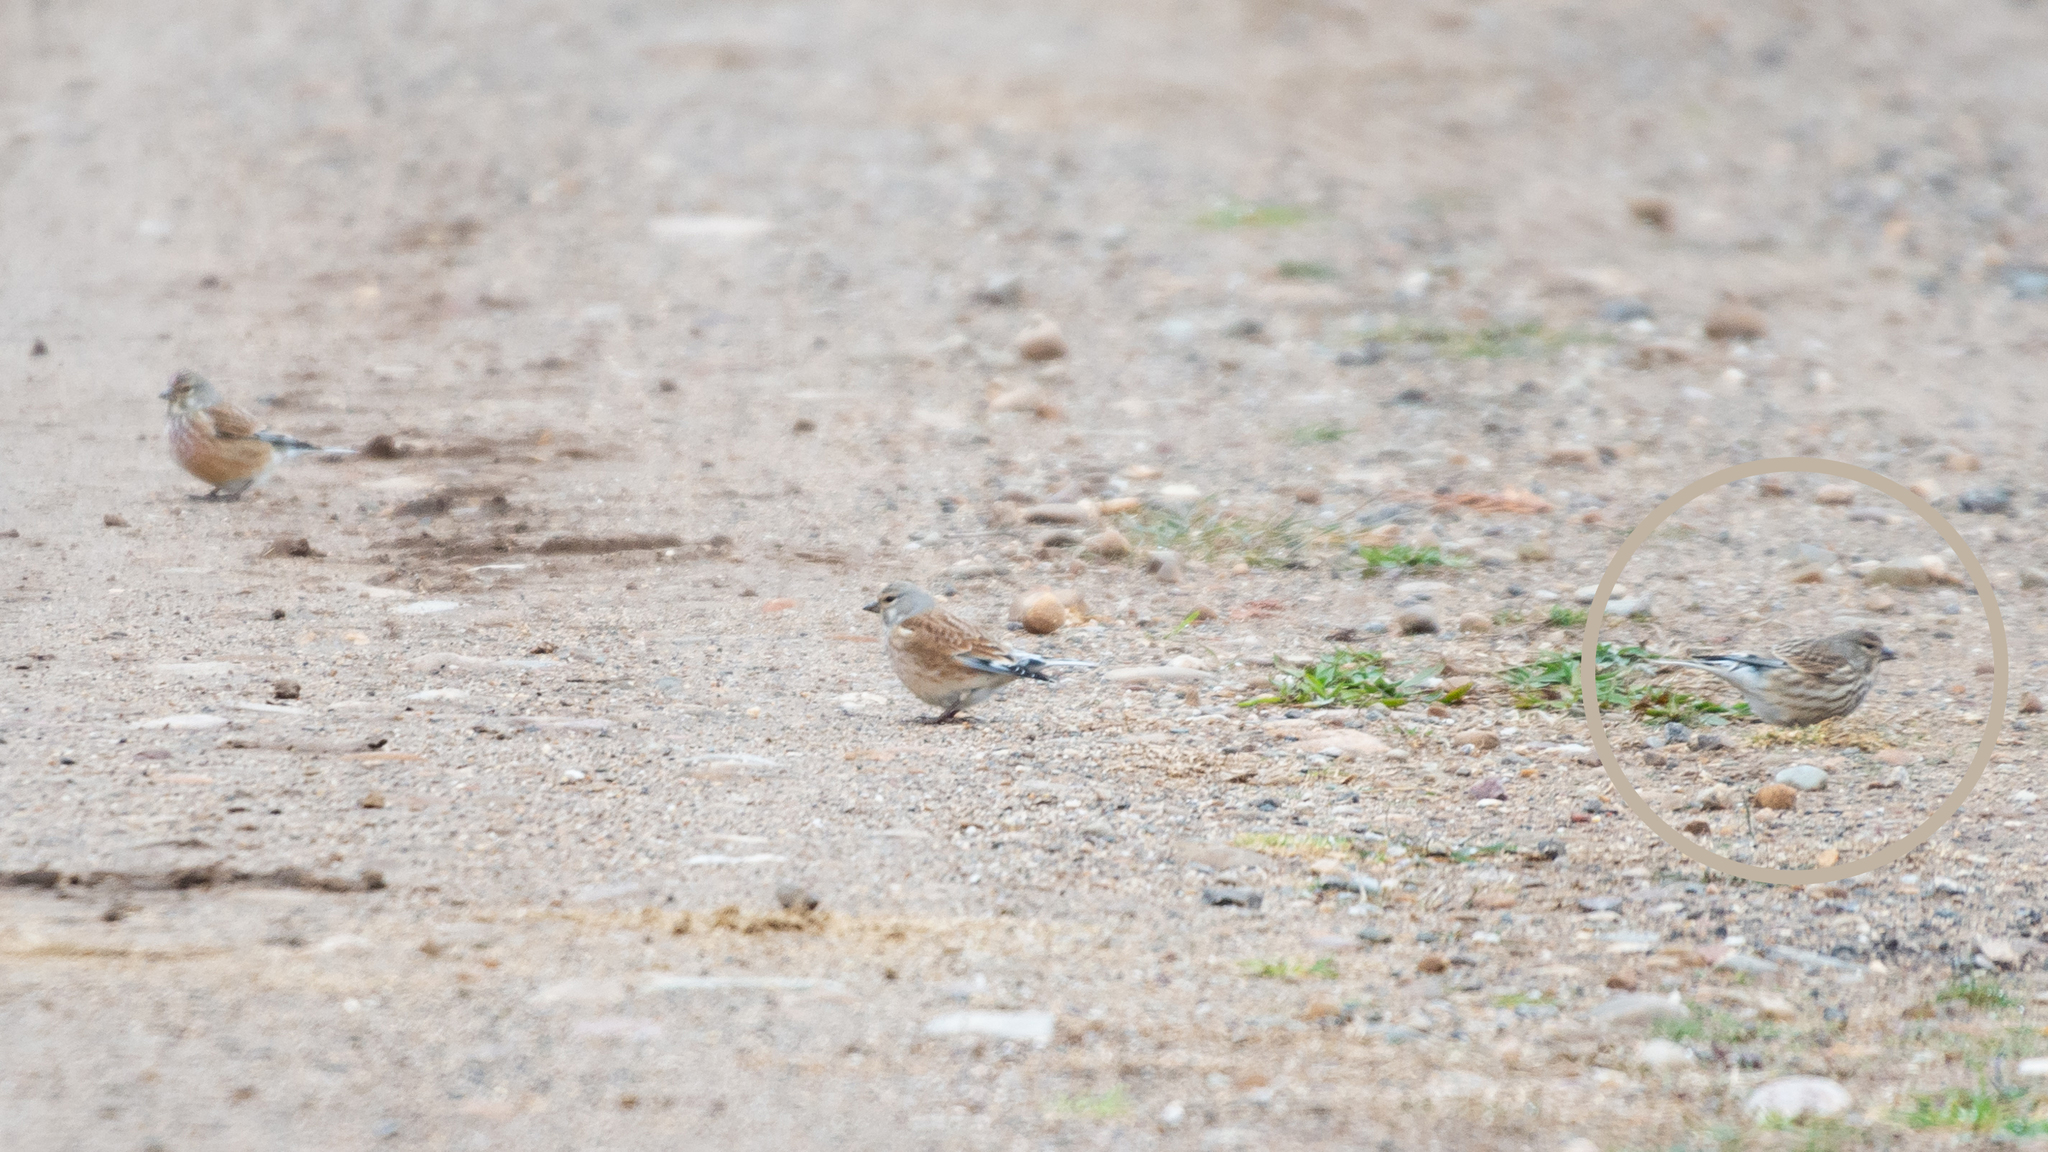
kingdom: Animalia
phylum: Chordata
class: Aves
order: Passeriformes
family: Fringillidae
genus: Linaria
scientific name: Linaria cannabina
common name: Common linnet
